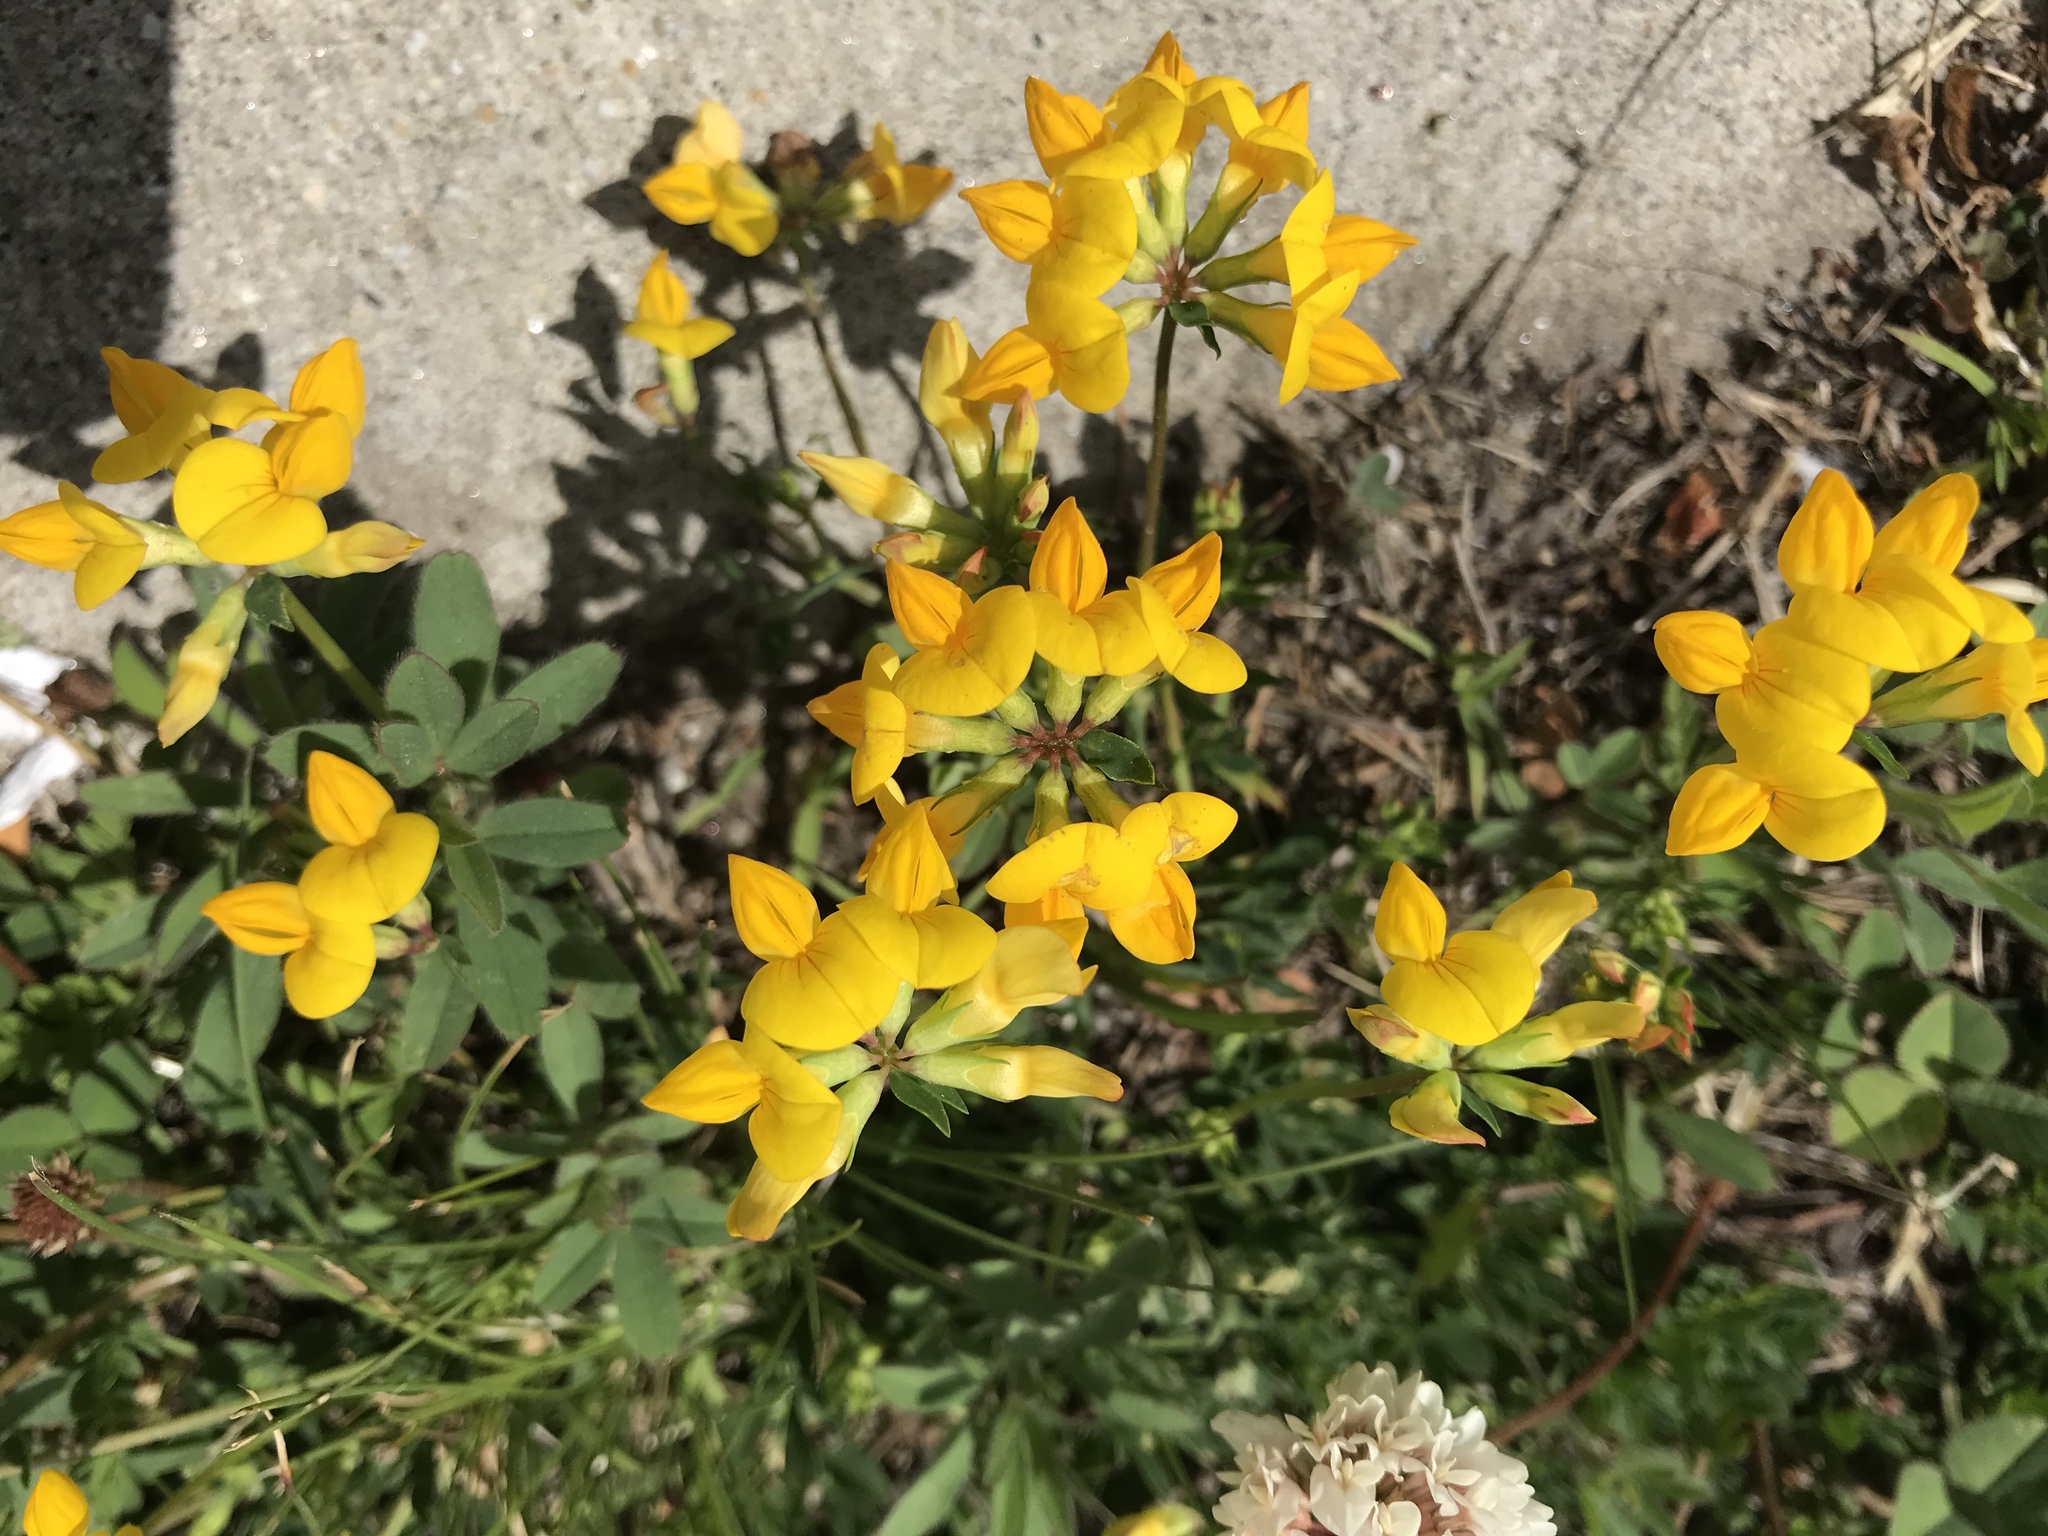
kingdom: Plantae
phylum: Tracheophyta
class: Magnoliopsida
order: Fabales
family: Fabaceae
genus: Lotus
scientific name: Lotus corniculatus
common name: Common bird's-foot-trefoil
